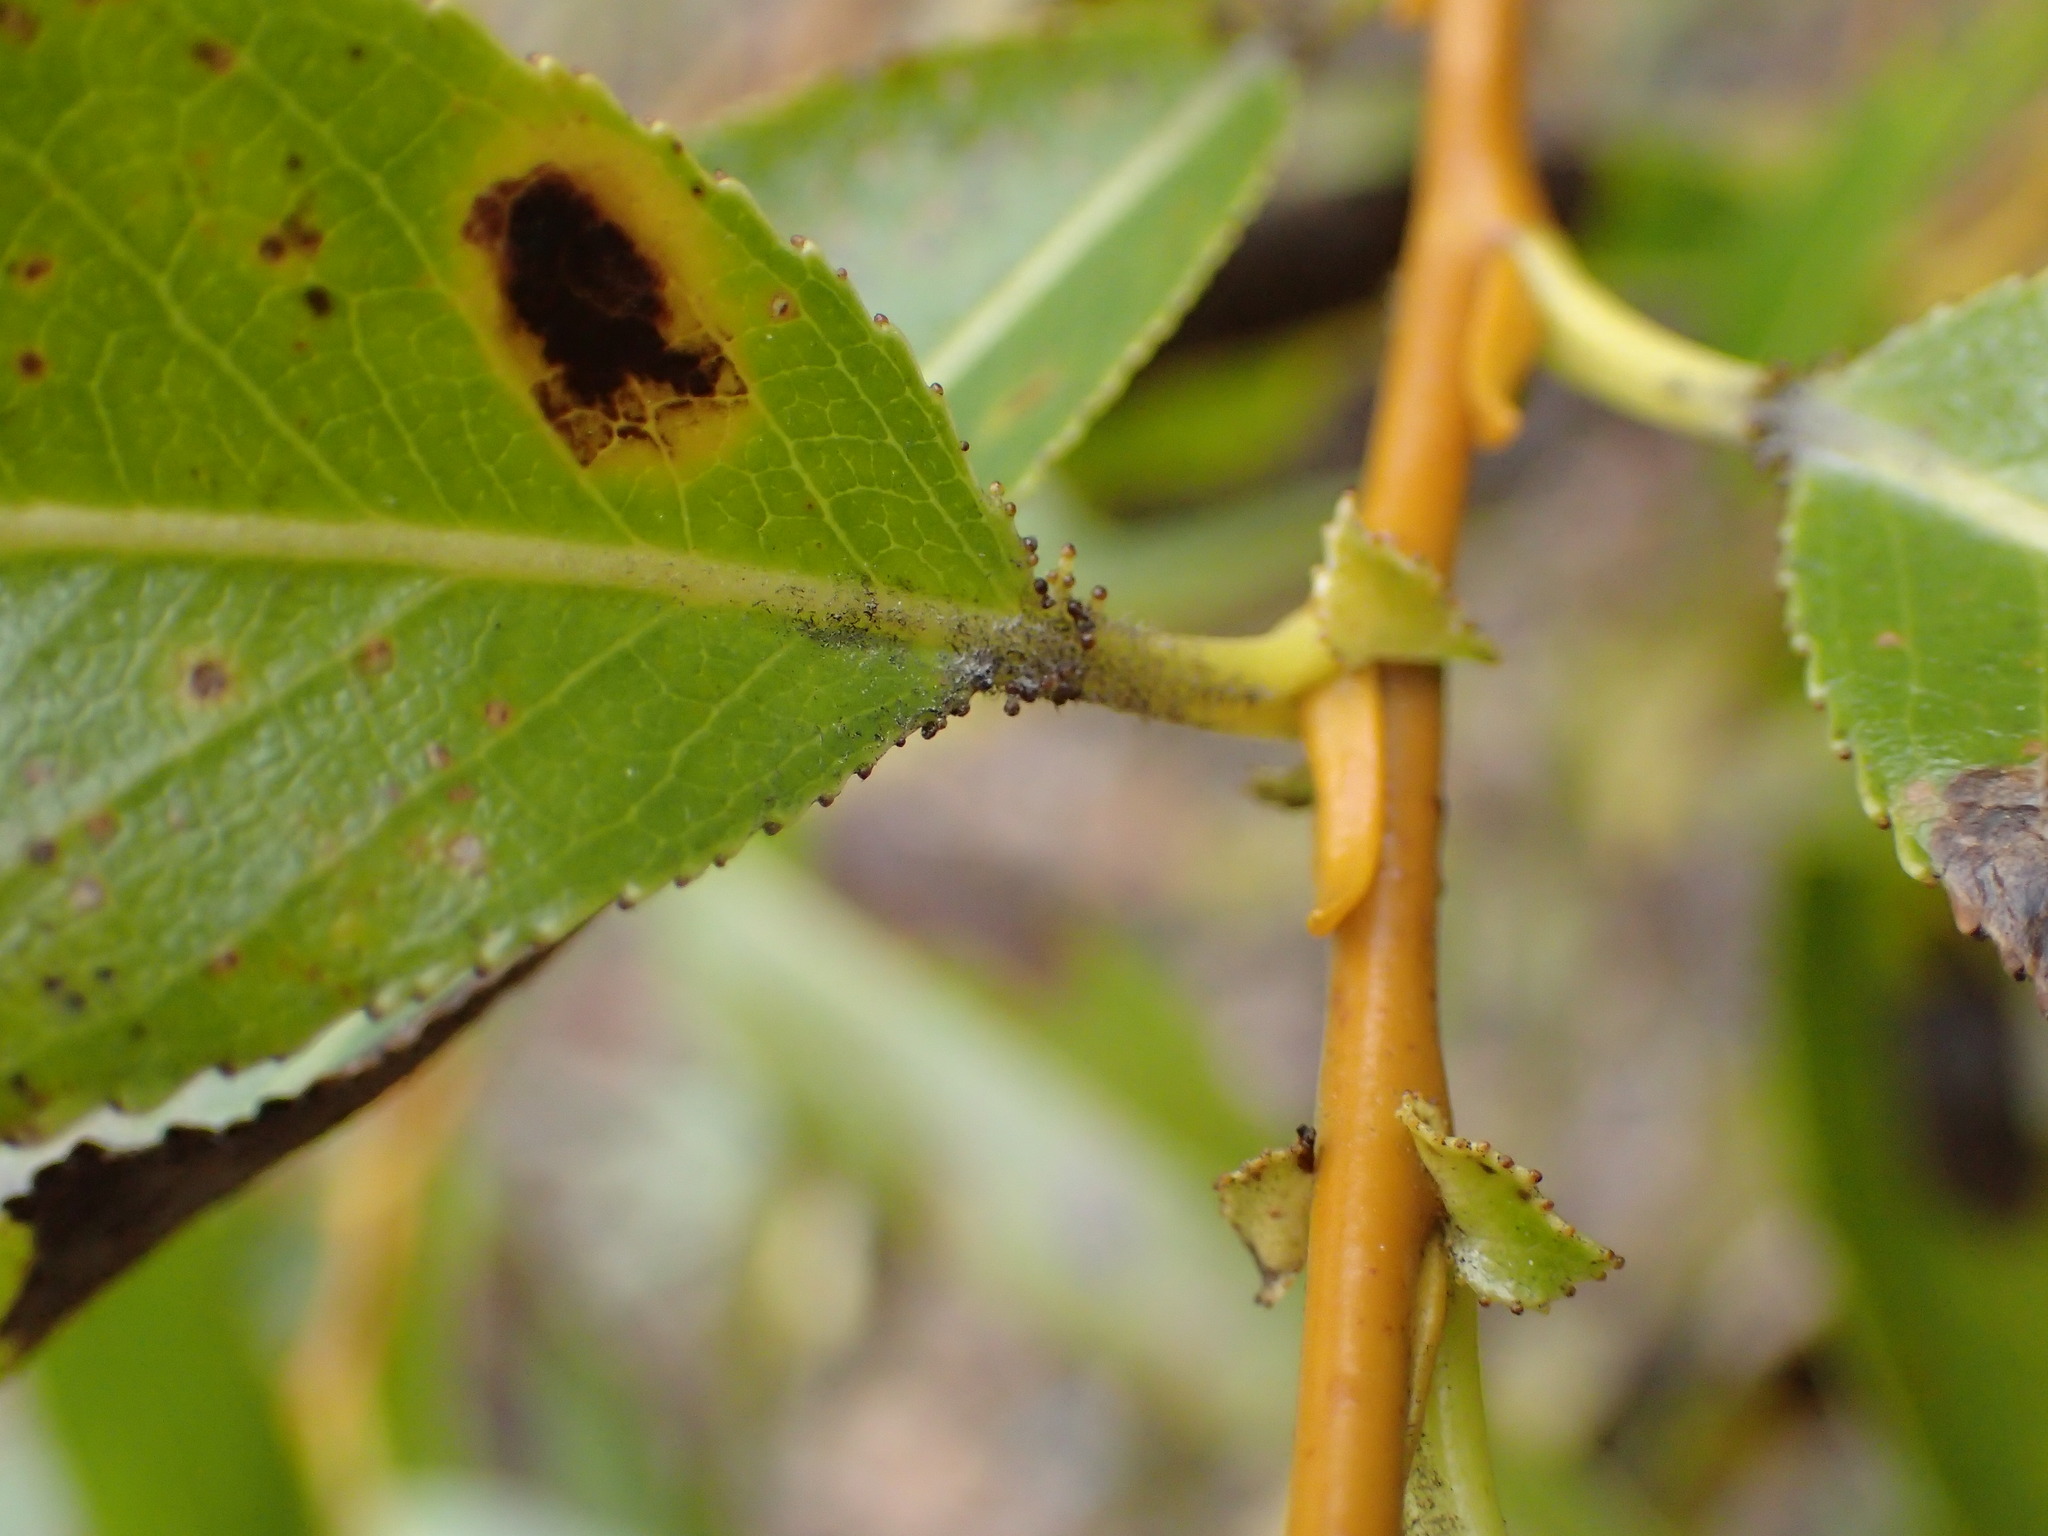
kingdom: Plantae
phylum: Tracheophyta
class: Magnoliopsida
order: Malpighiales
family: Salicaceae
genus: Salix
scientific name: Salix lucida
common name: Shining willow
